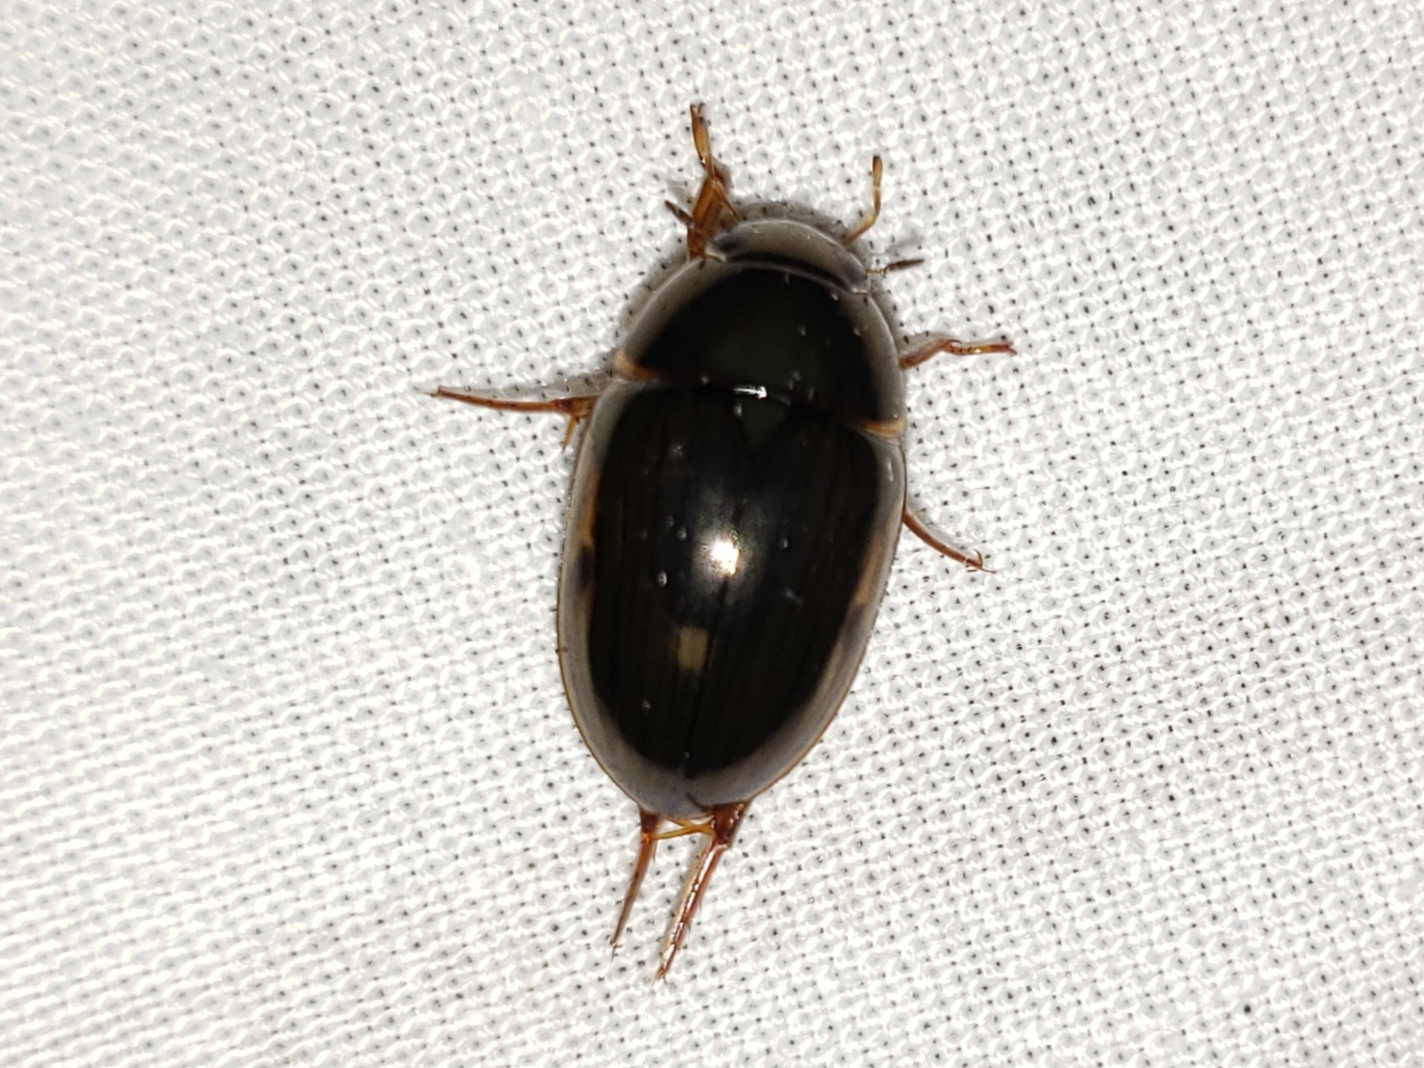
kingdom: Animalia
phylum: Arthropoda
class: Insecta
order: Coleoptera
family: Hydrophilidae
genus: Tropisternus
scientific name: Tropisternus collaris
